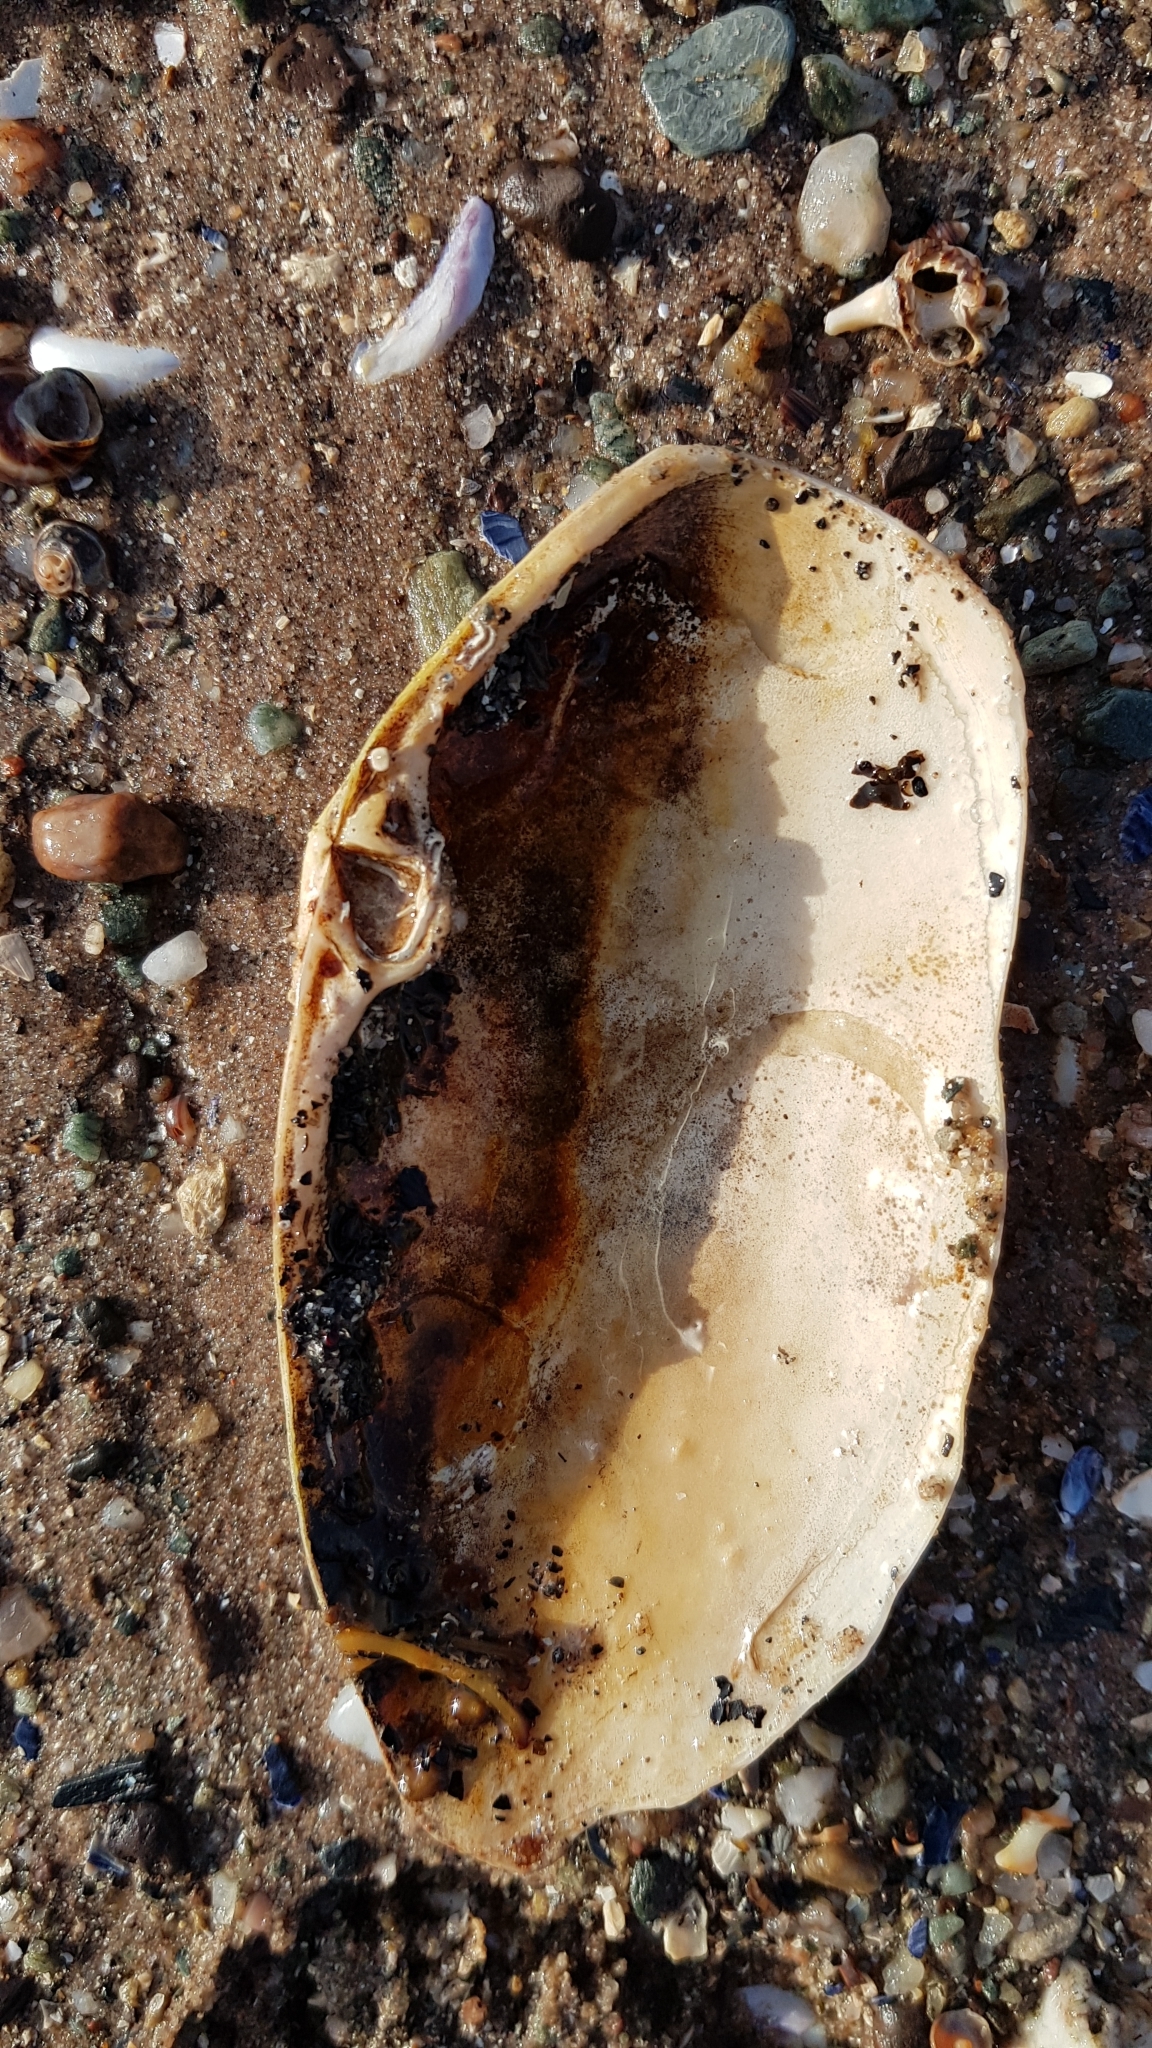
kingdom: Animalia
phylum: Mollusca
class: Bivalvia
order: Venerida
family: Mactridae
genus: Lutraria
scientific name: Lutraria lutraria
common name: Common otter shell
